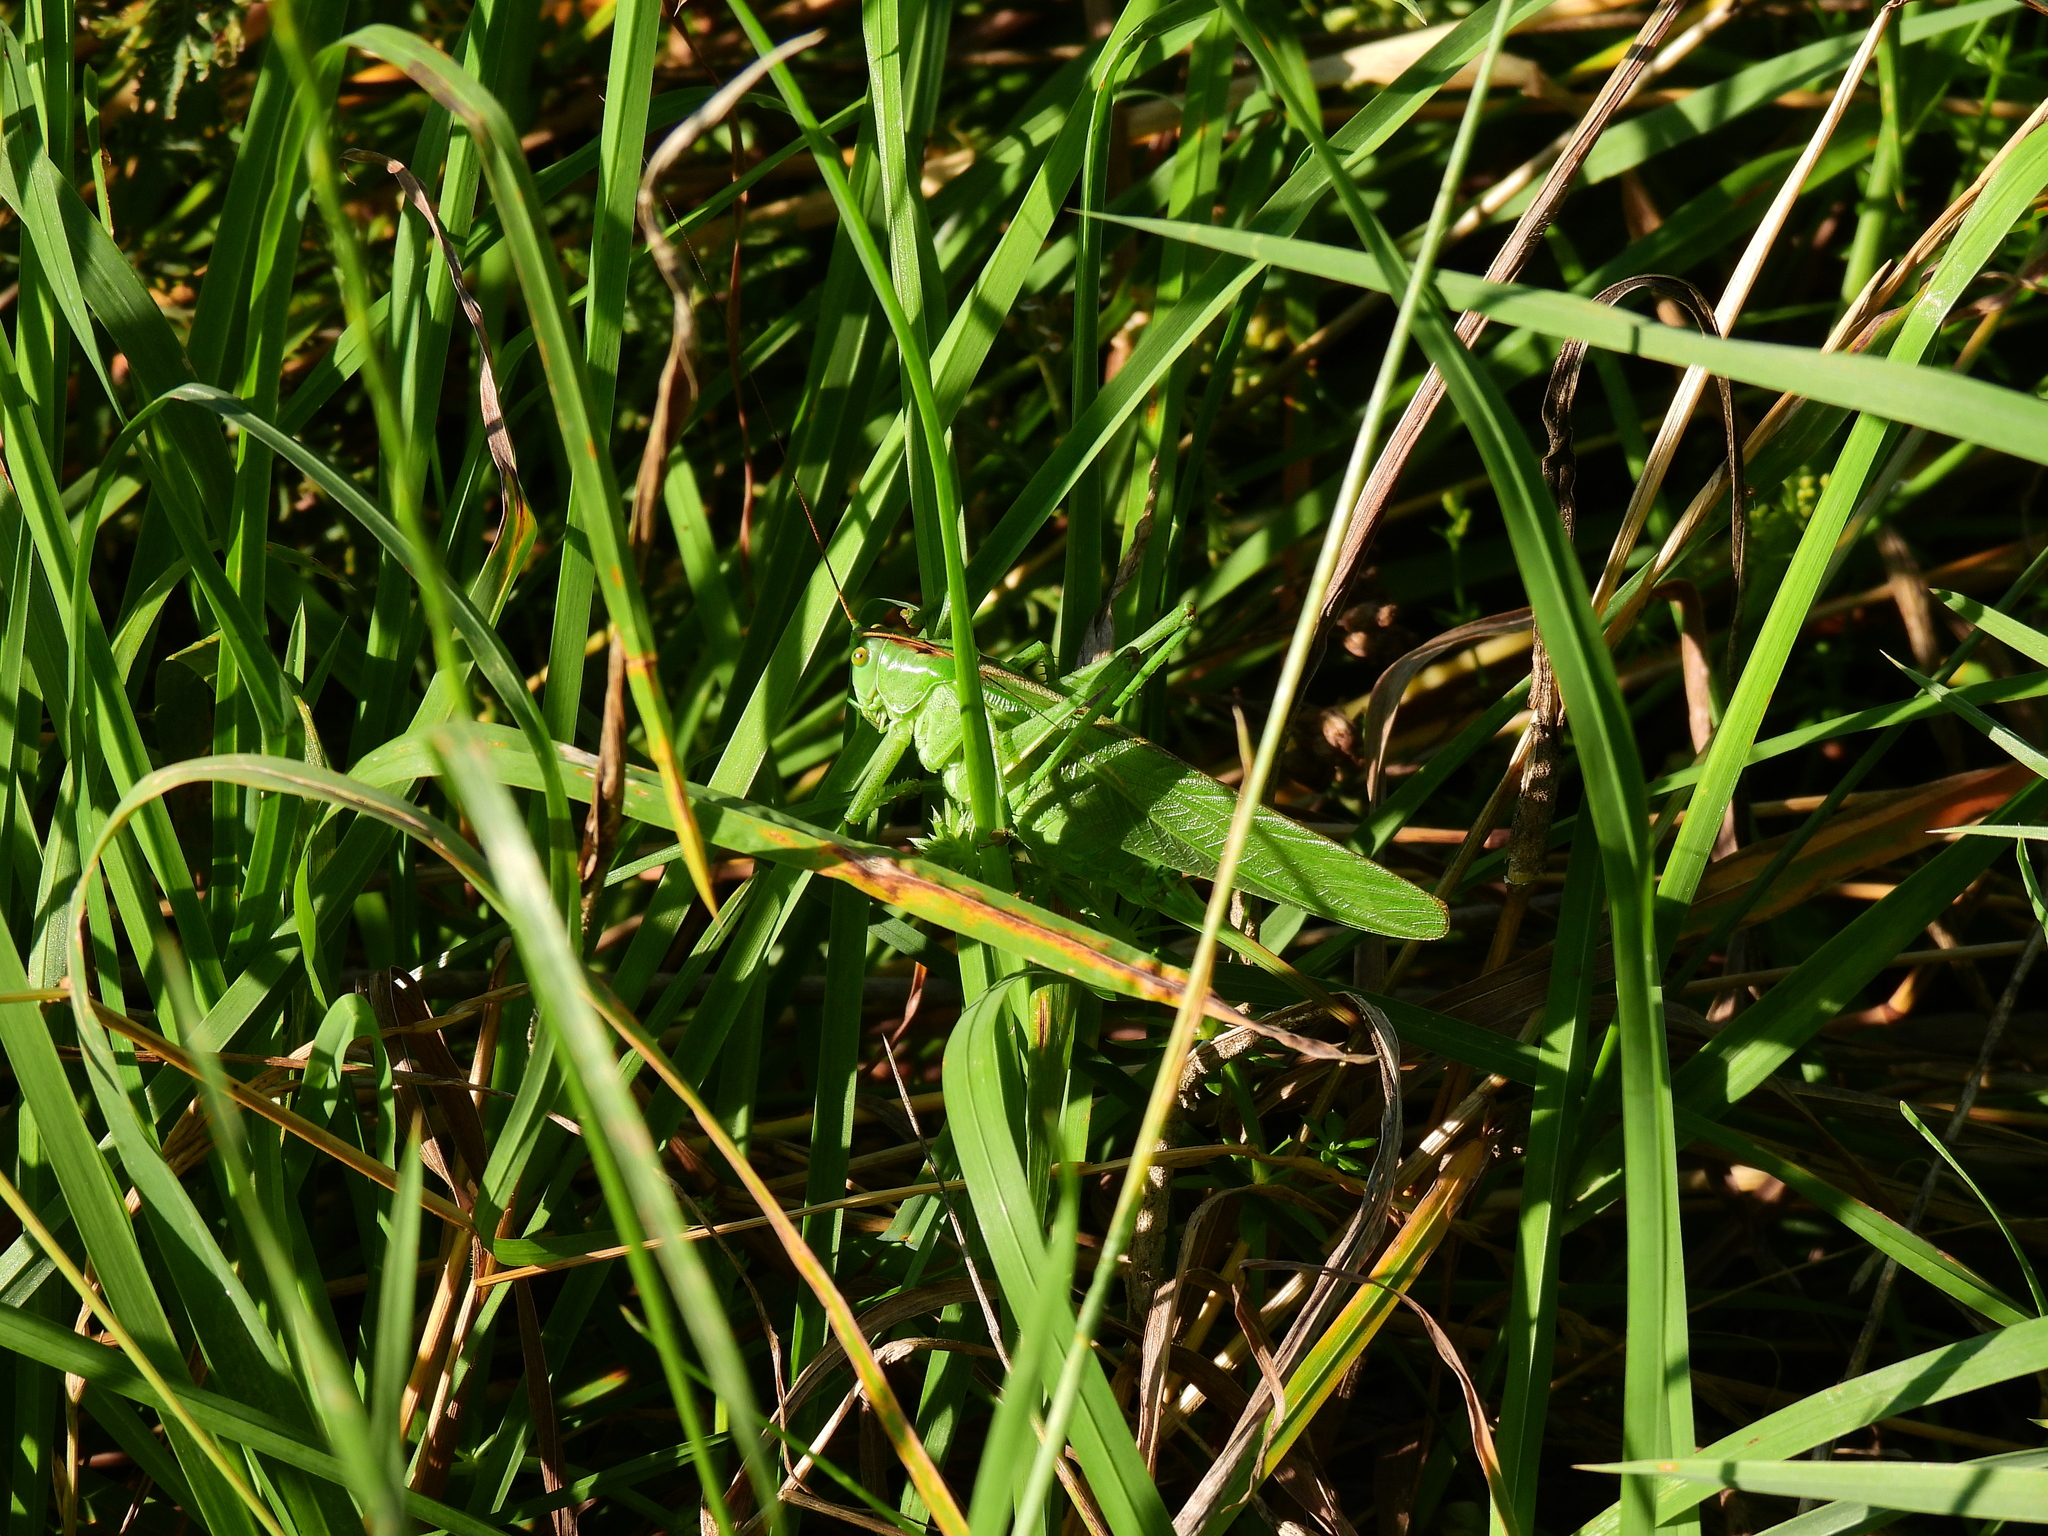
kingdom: Animalia
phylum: Arthropoda
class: Insecta
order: Orthoptera
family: Tettigoniidae
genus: Tettigonia
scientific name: Tettigonia viridissima
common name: Great green bush-cricket
